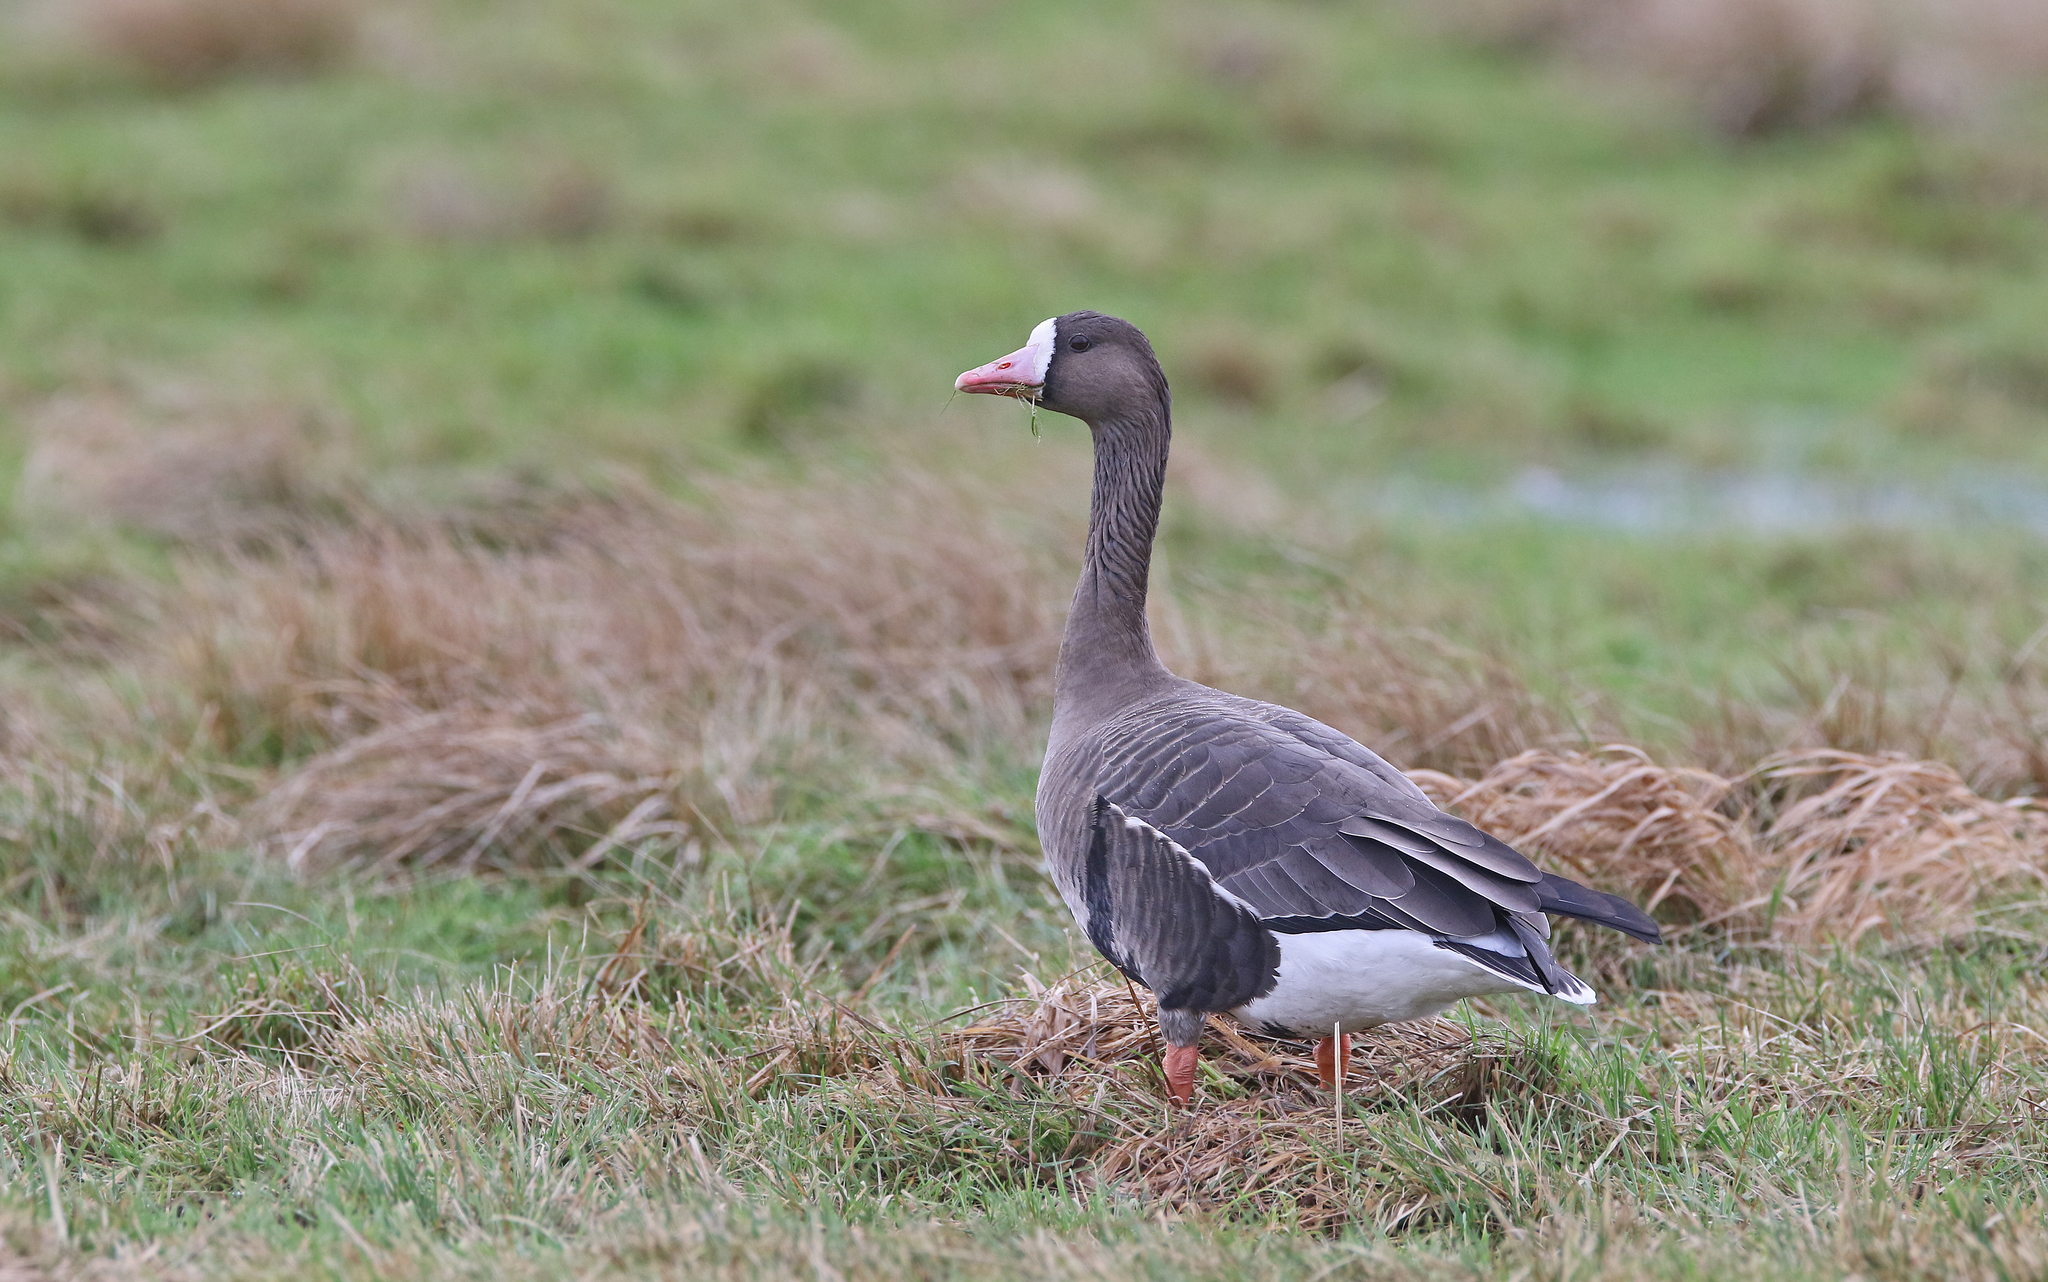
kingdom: Animalia
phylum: Chordata
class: Aves
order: Anseriformes
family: Anatidae
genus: Anser
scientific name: Anser albifrons
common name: Greater white-fronted goose
